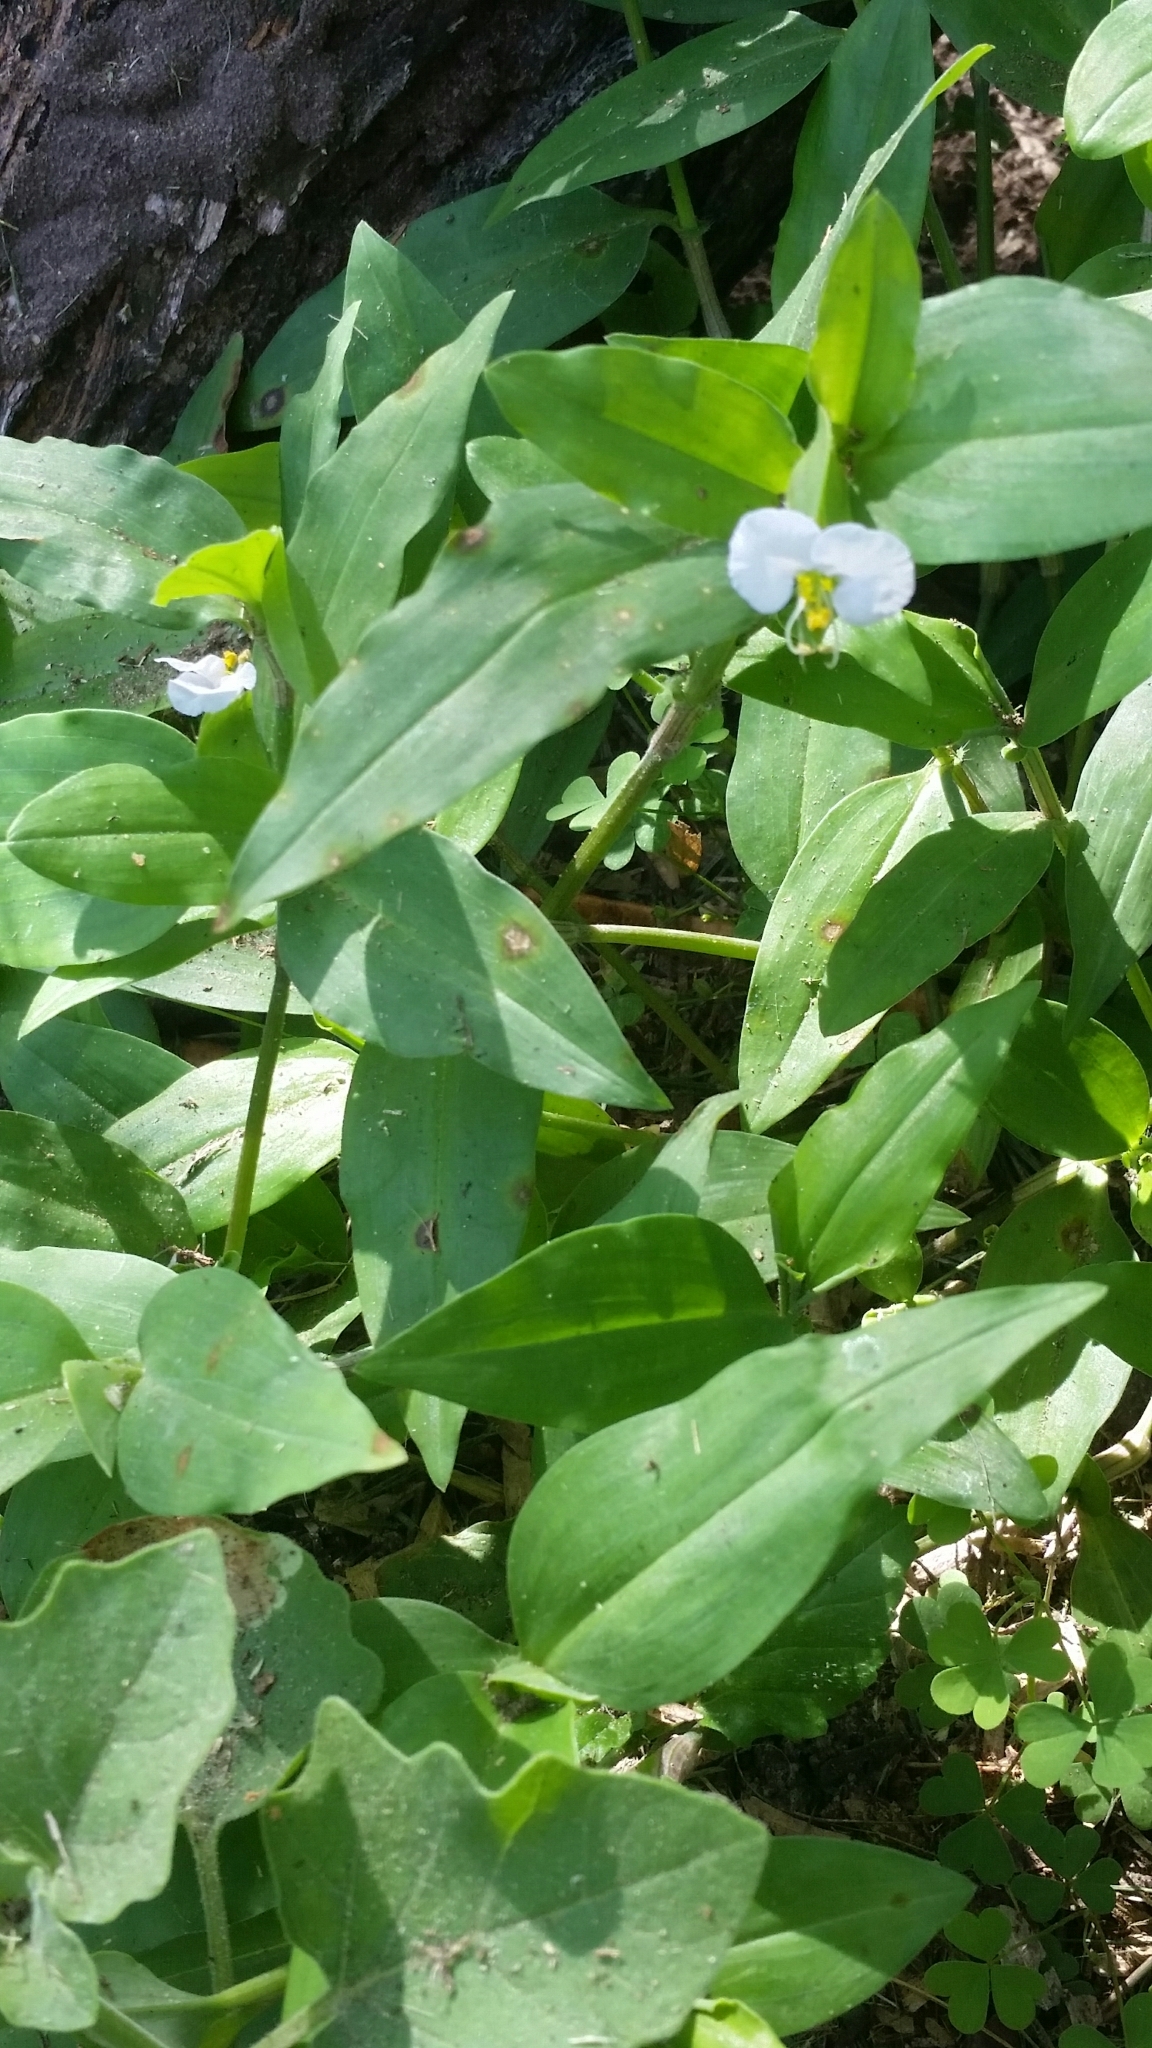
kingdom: Plantae
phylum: Tracheophyta
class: Liliopsida
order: Commelinales
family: Commelinaceae
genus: Commelina
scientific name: Commelina erecta
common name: Blousel blommetjie
